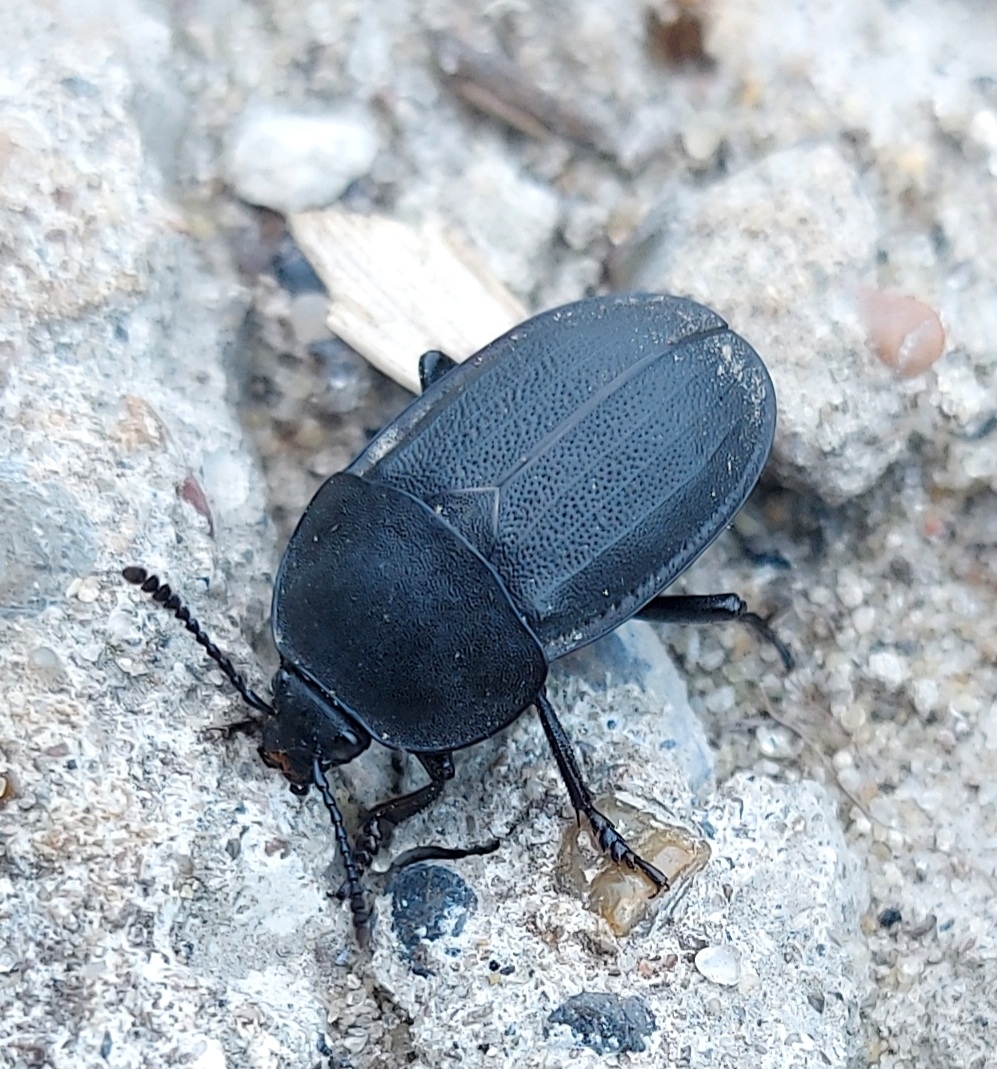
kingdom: Animalia
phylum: Arthropoda
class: Insecta
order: Coleoptera
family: Staphylinidae
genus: Silpha
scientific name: Silpha obscura
